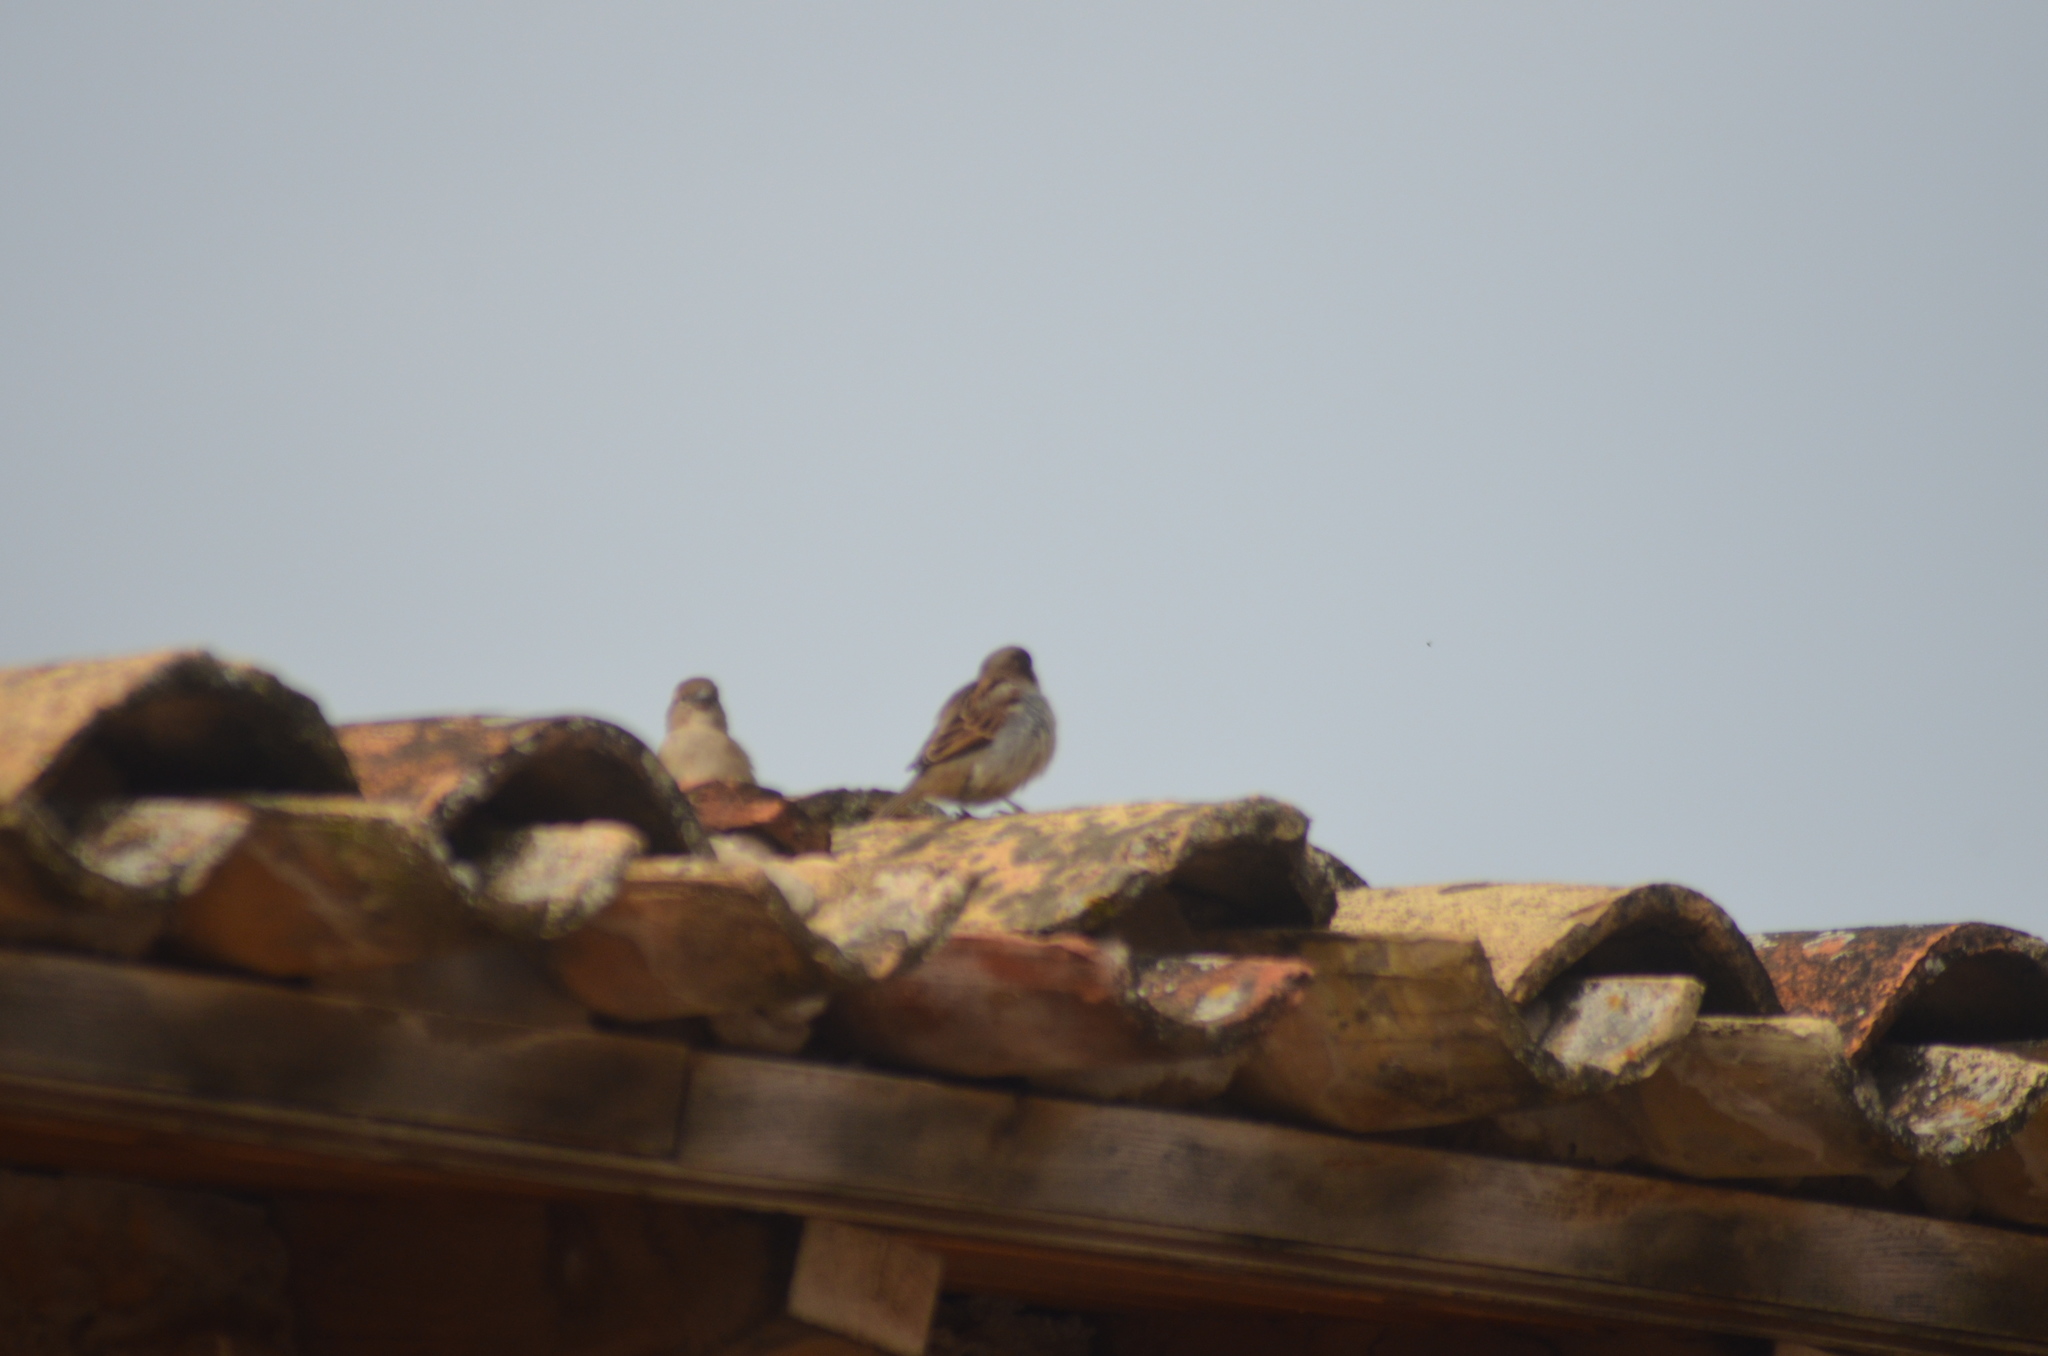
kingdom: Animalia
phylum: Chordata
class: Aves
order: Passeriformes
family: Passeridae
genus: Passer
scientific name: Passer domesticus
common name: House sparrow
